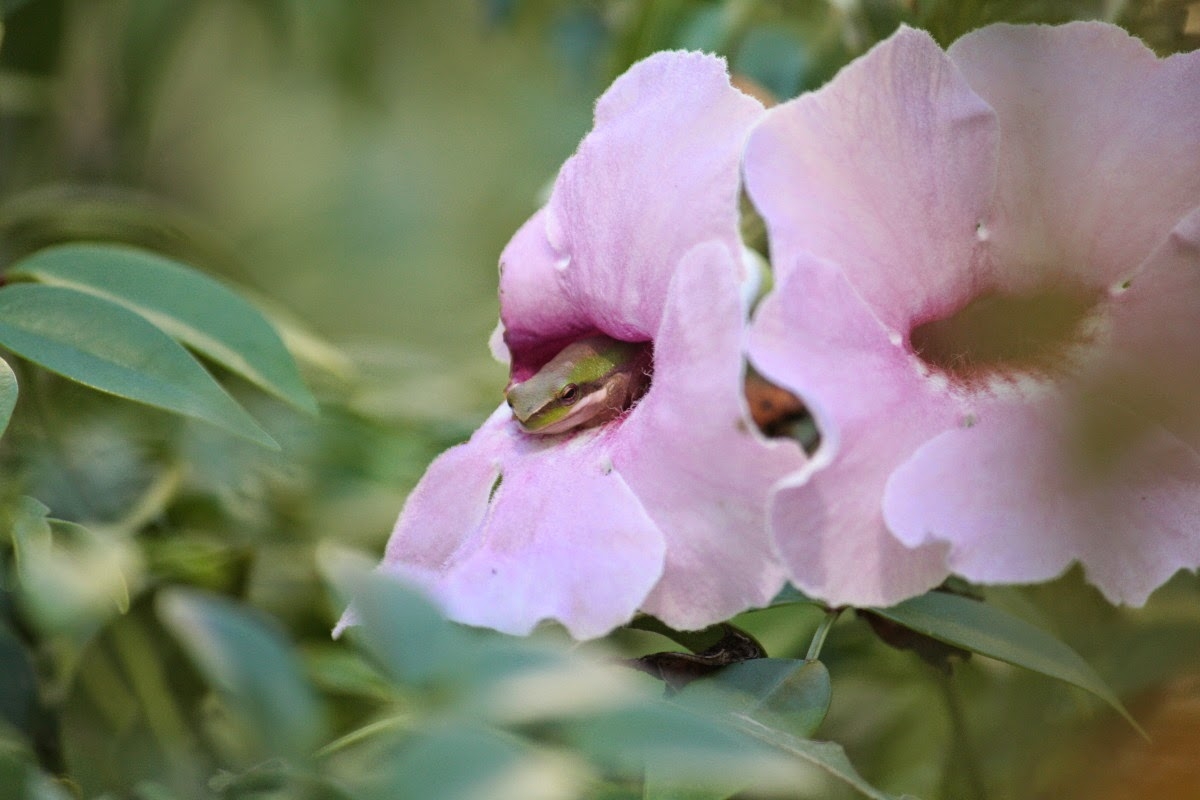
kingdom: Animalia
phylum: Chordata
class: Amphibia
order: Anura
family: Pelodryadidae
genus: Litoria
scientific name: Litoria fallax
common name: Eastern dwarf treefrog
